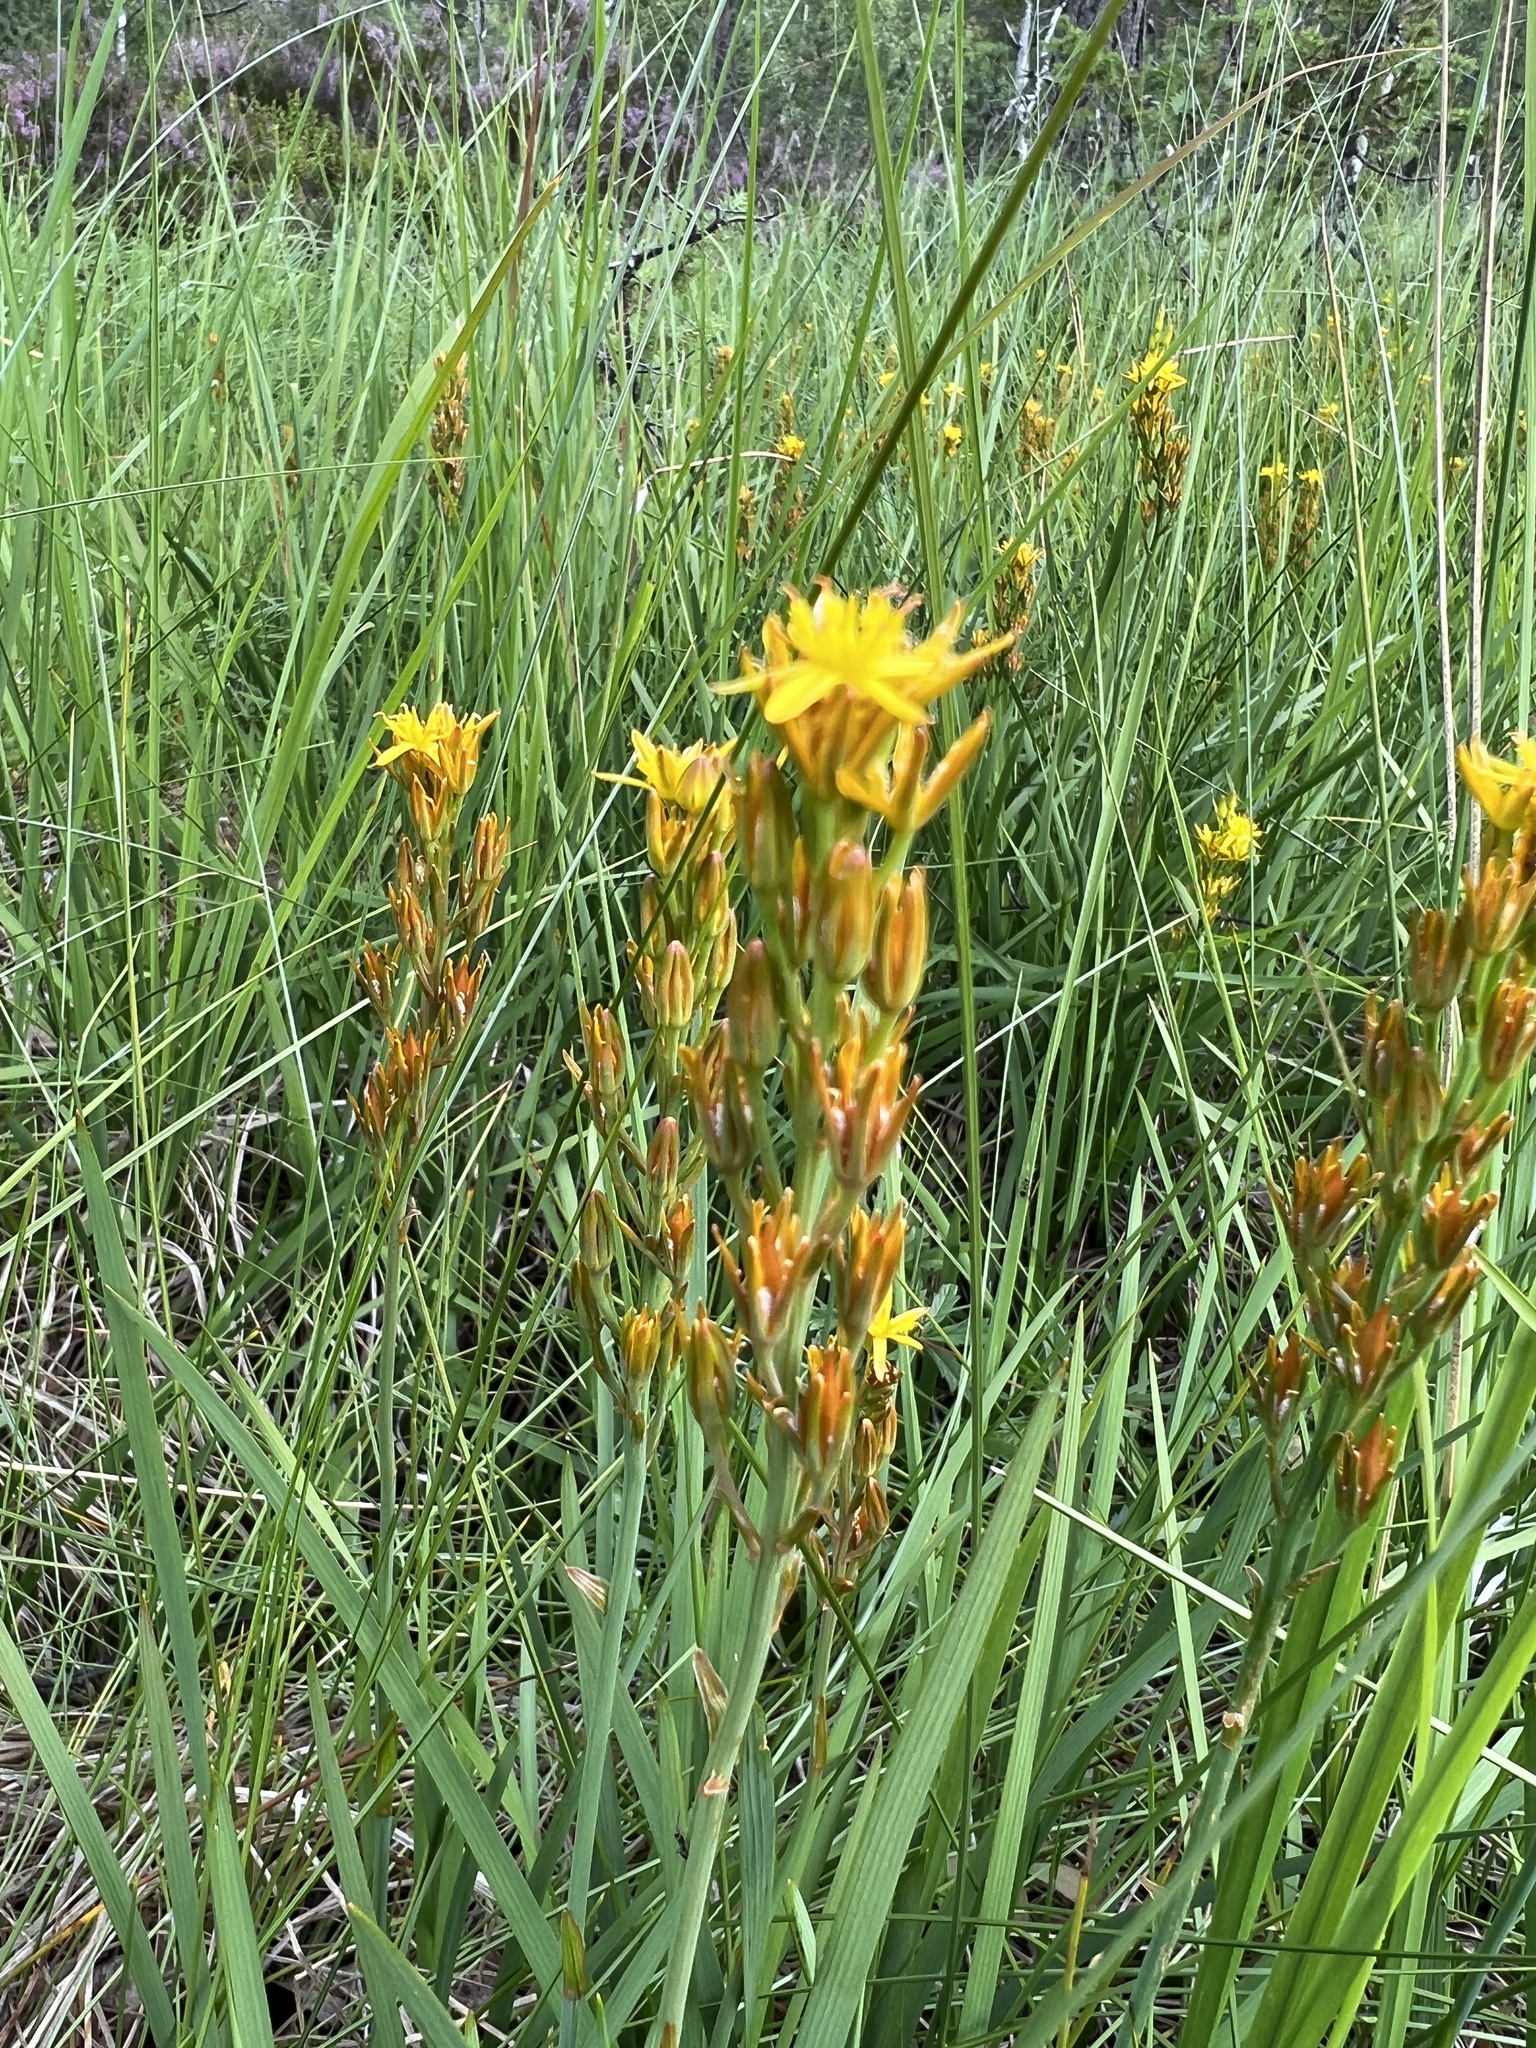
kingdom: Plantae
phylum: Tracheophyta
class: Liliopsida
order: Dioscoreales
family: Nartheciaceae
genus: Narthecium
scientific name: Narthecium ossifragum
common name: Bog asphodel
